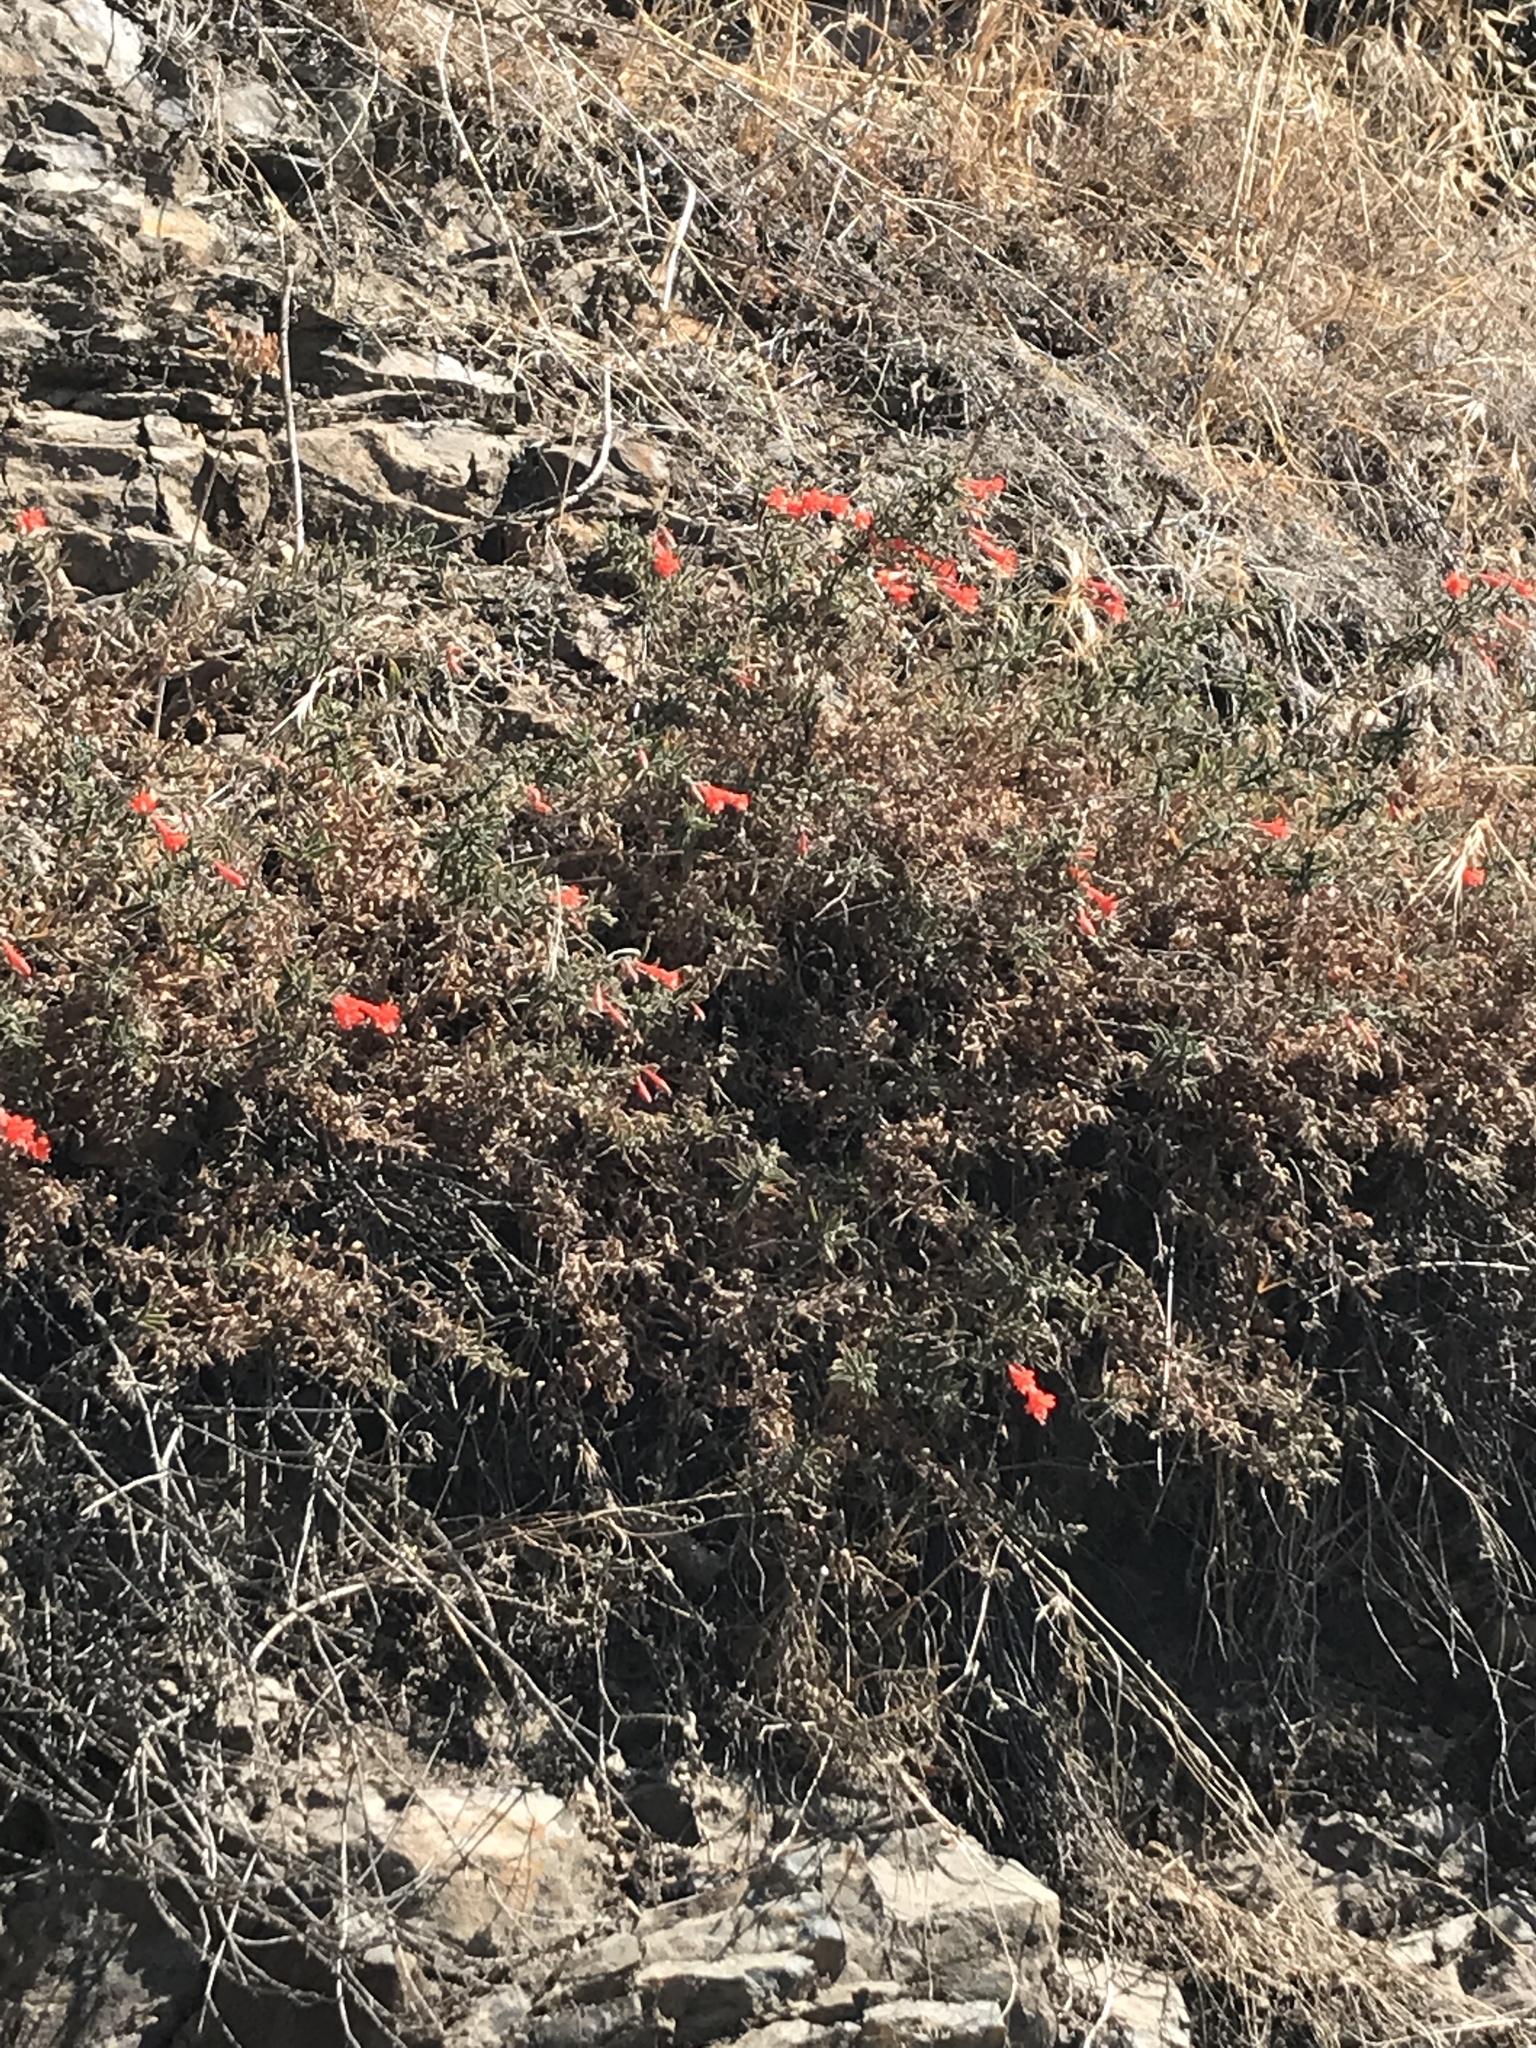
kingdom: Plantae
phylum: Tracheophyta
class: Magnoliopsida
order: Myrtales
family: Onagraceae
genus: Epilobium
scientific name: Epilobium canum
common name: California-fuchsia
